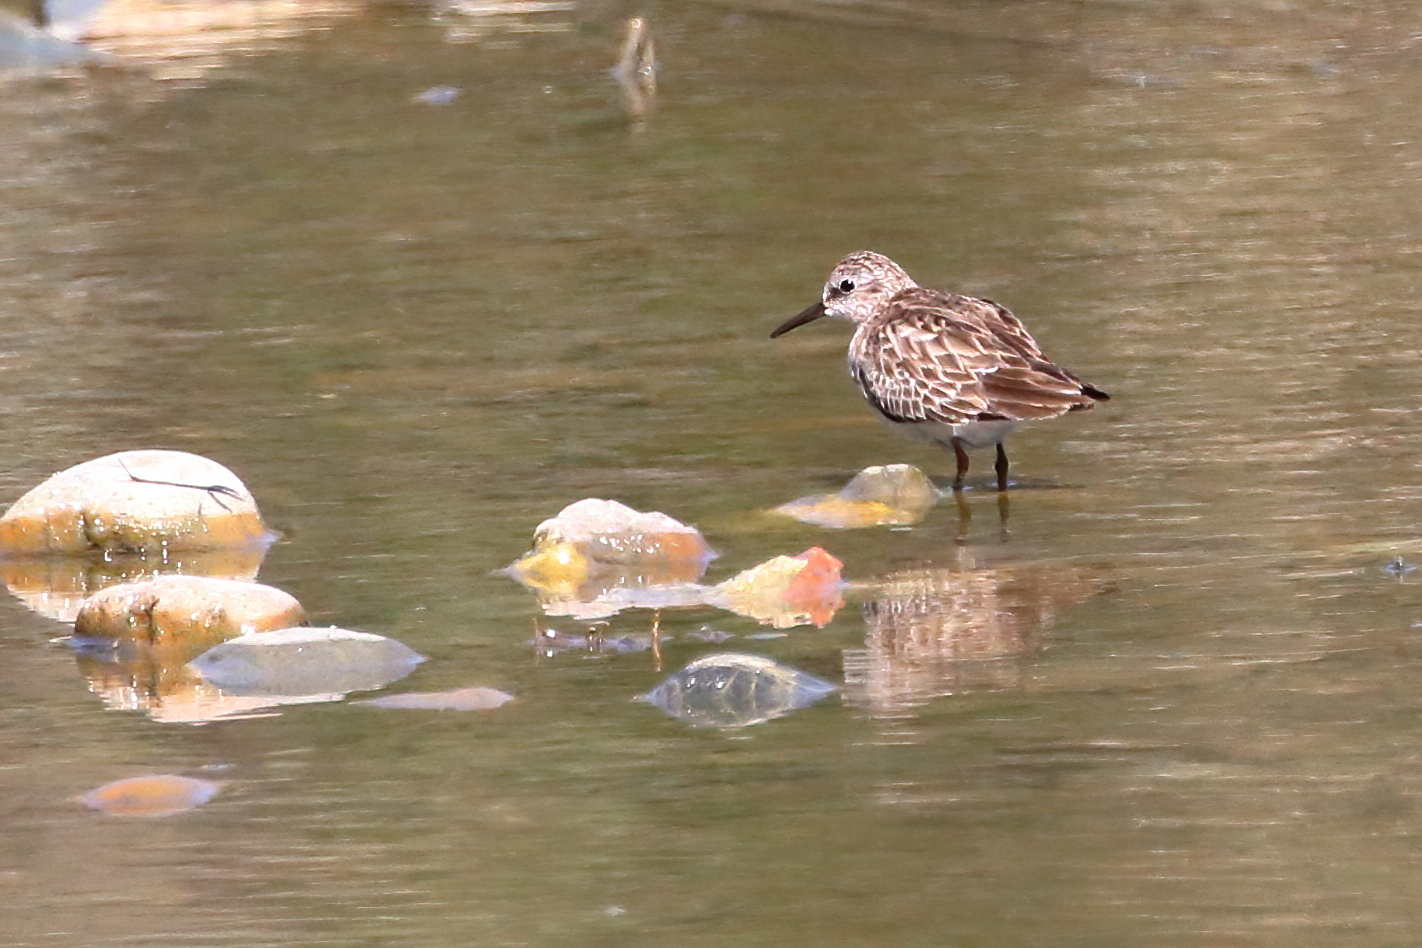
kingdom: Animalia
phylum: Chordata
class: Aves
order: Charadriiformes
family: Scolopacidae
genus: Calidris
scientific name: Calidris minutilla
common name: Least sandpiper
